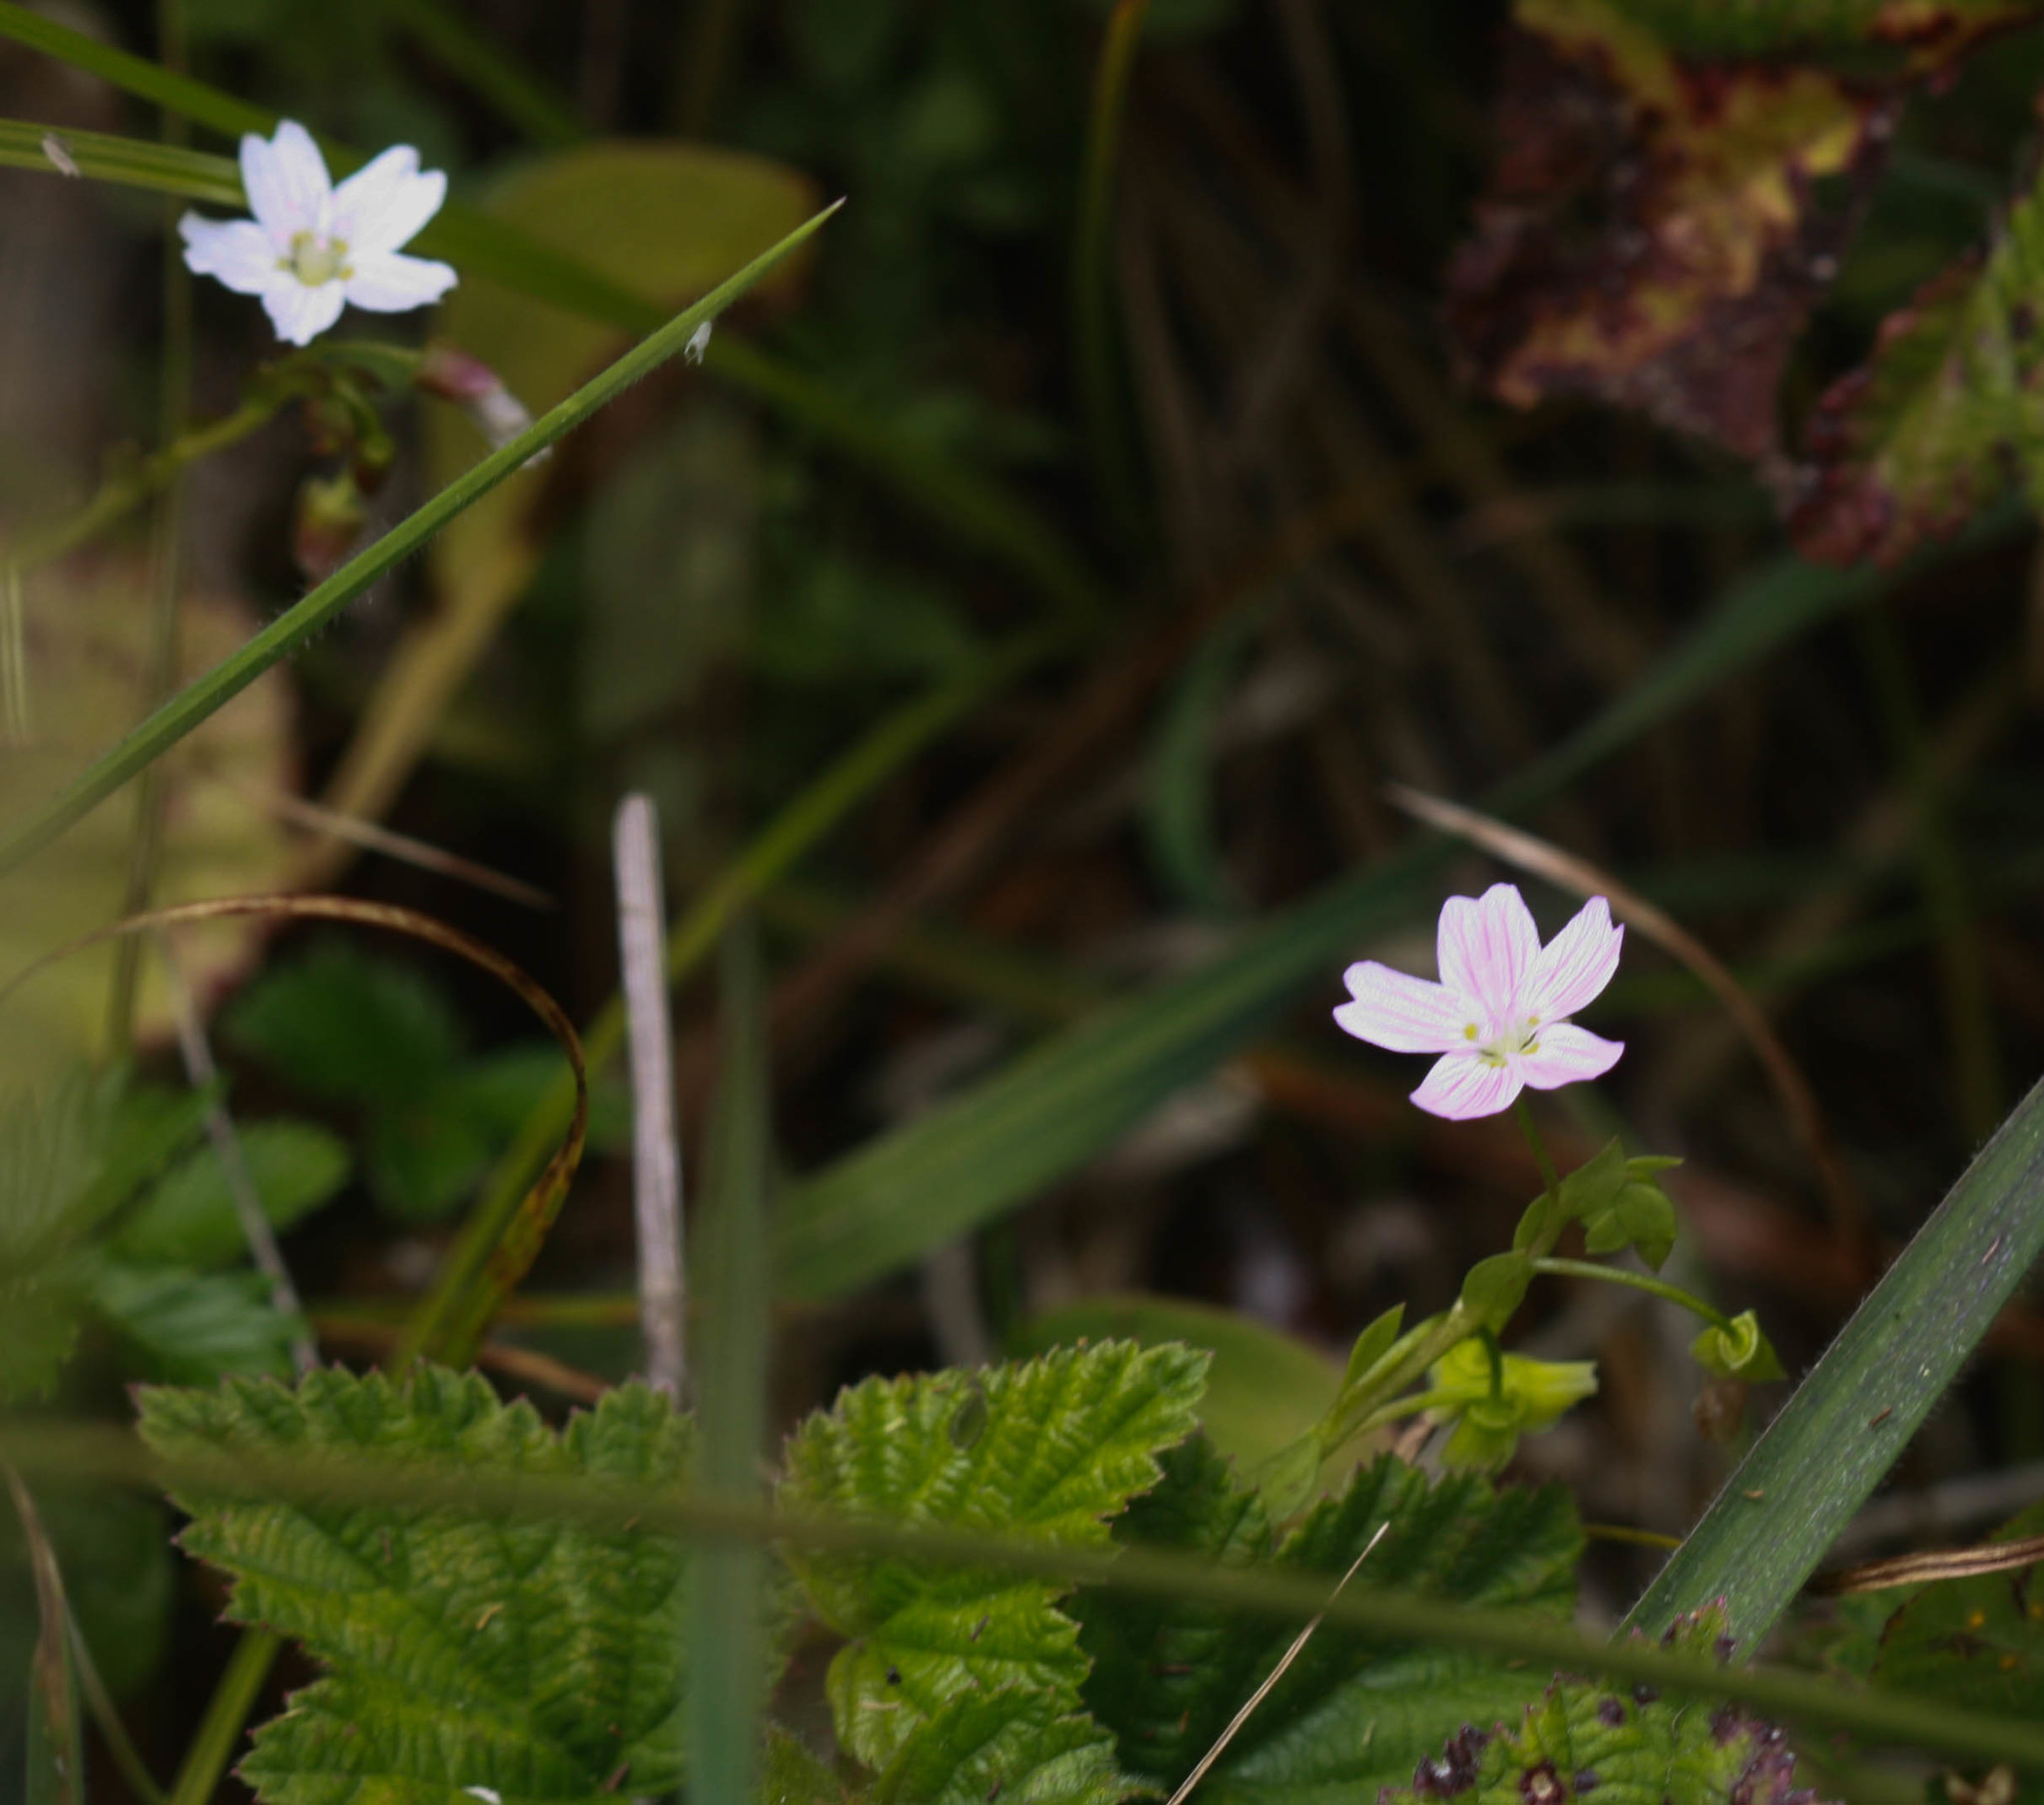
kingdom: Plantae
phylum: Tracheophyta
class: Magnoliopsida
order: Caryophyllales
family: Montiaceae
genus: Claytonia
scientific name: Claytonia sibirica
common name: Pink purslane
